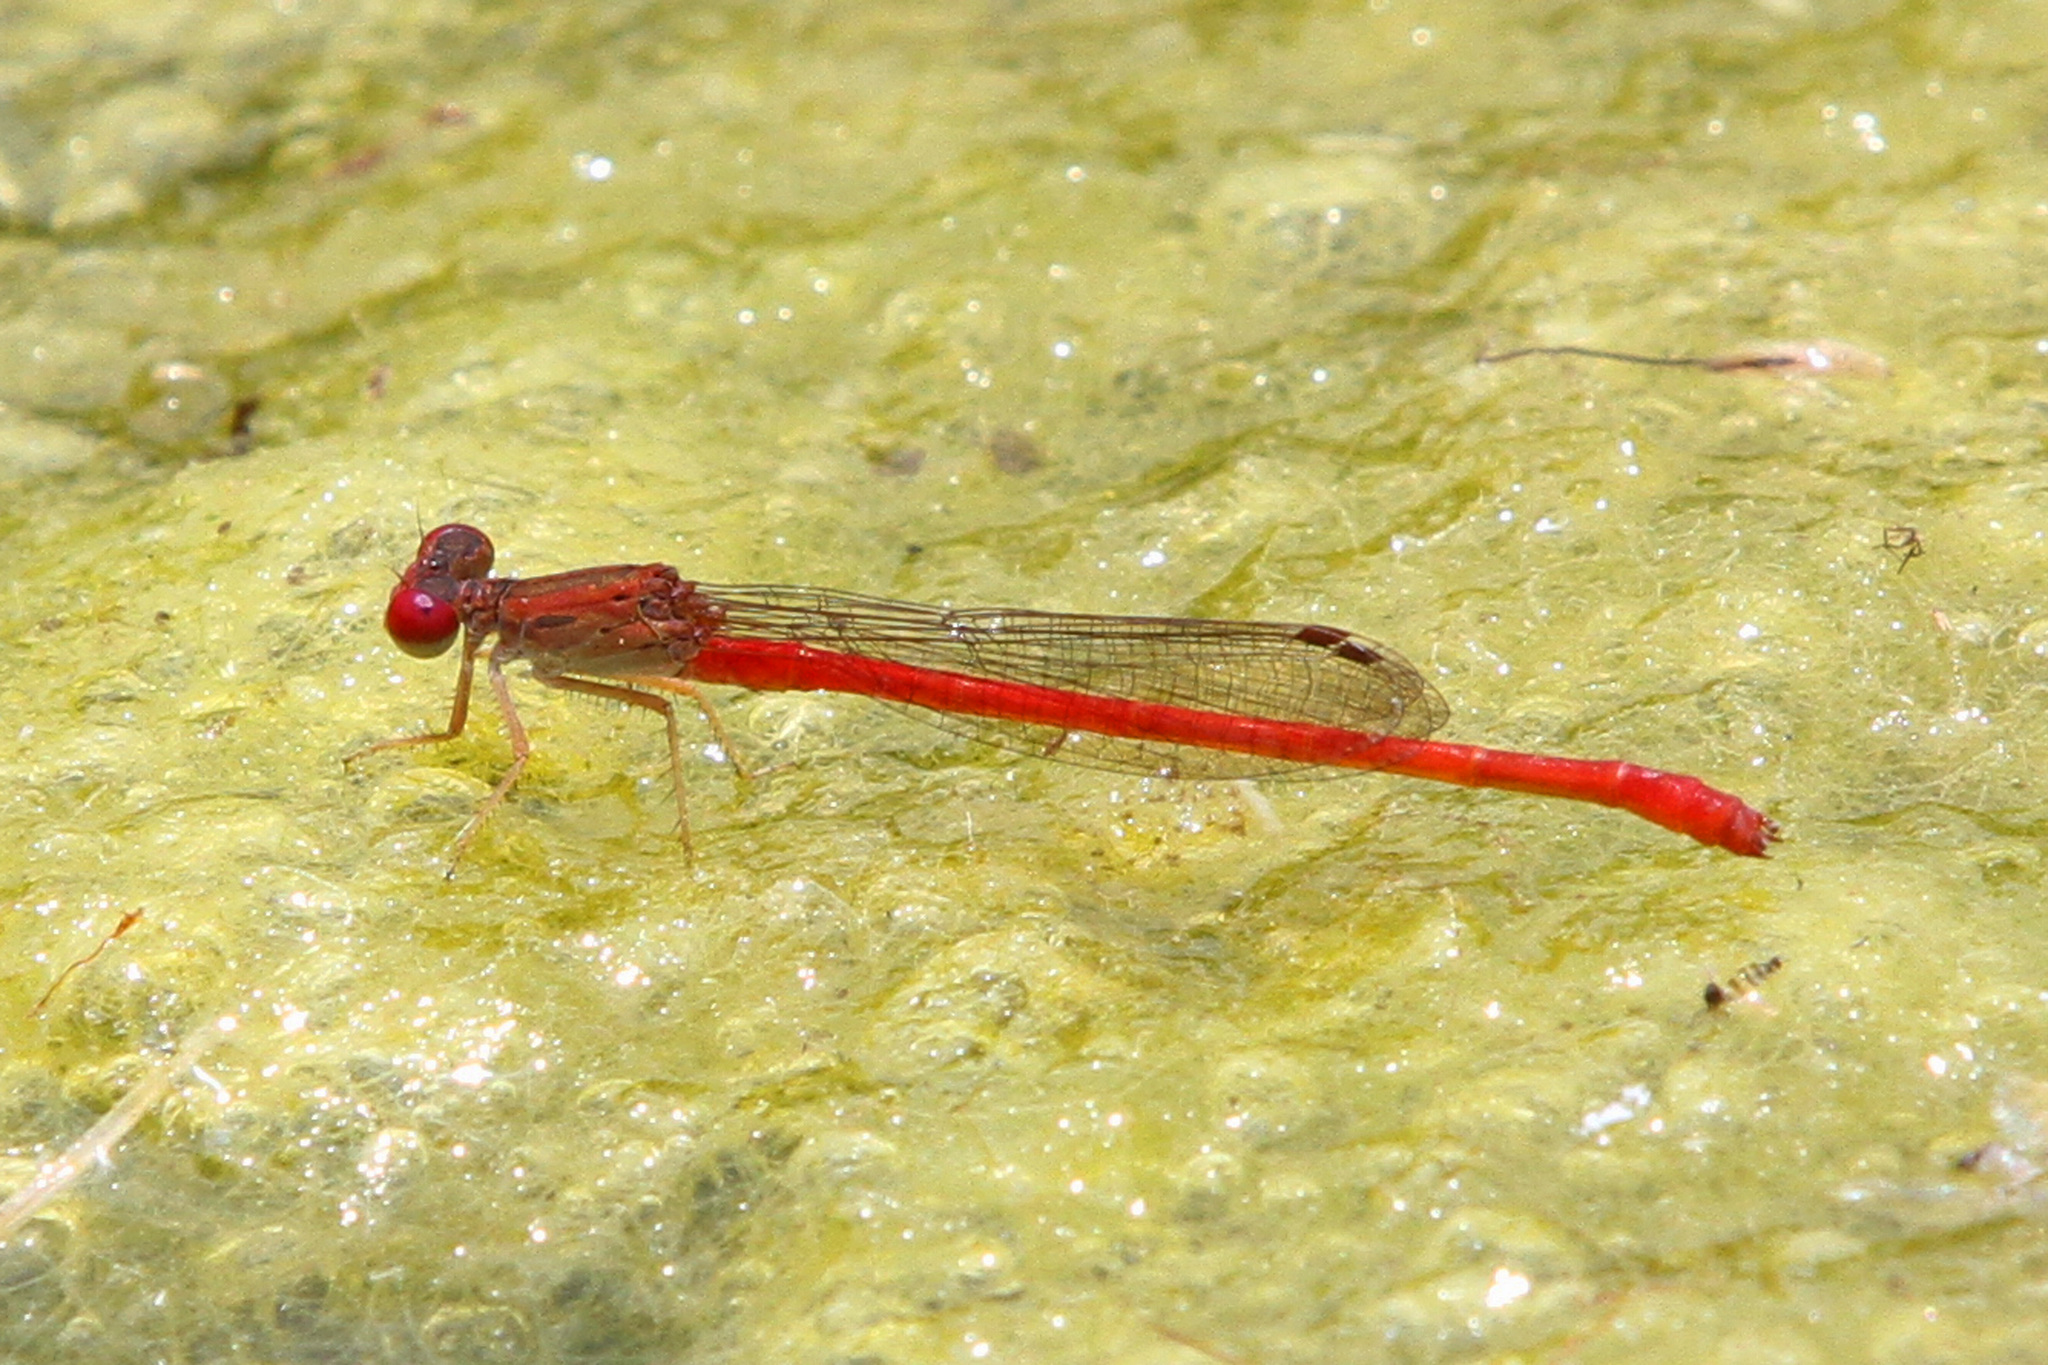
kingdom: Animalia
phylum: Arthropoda
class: Insecta
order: Odonata
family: Coenagrionidae
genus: Telebasis
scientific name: Telebasis salva
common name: Desert firetail
